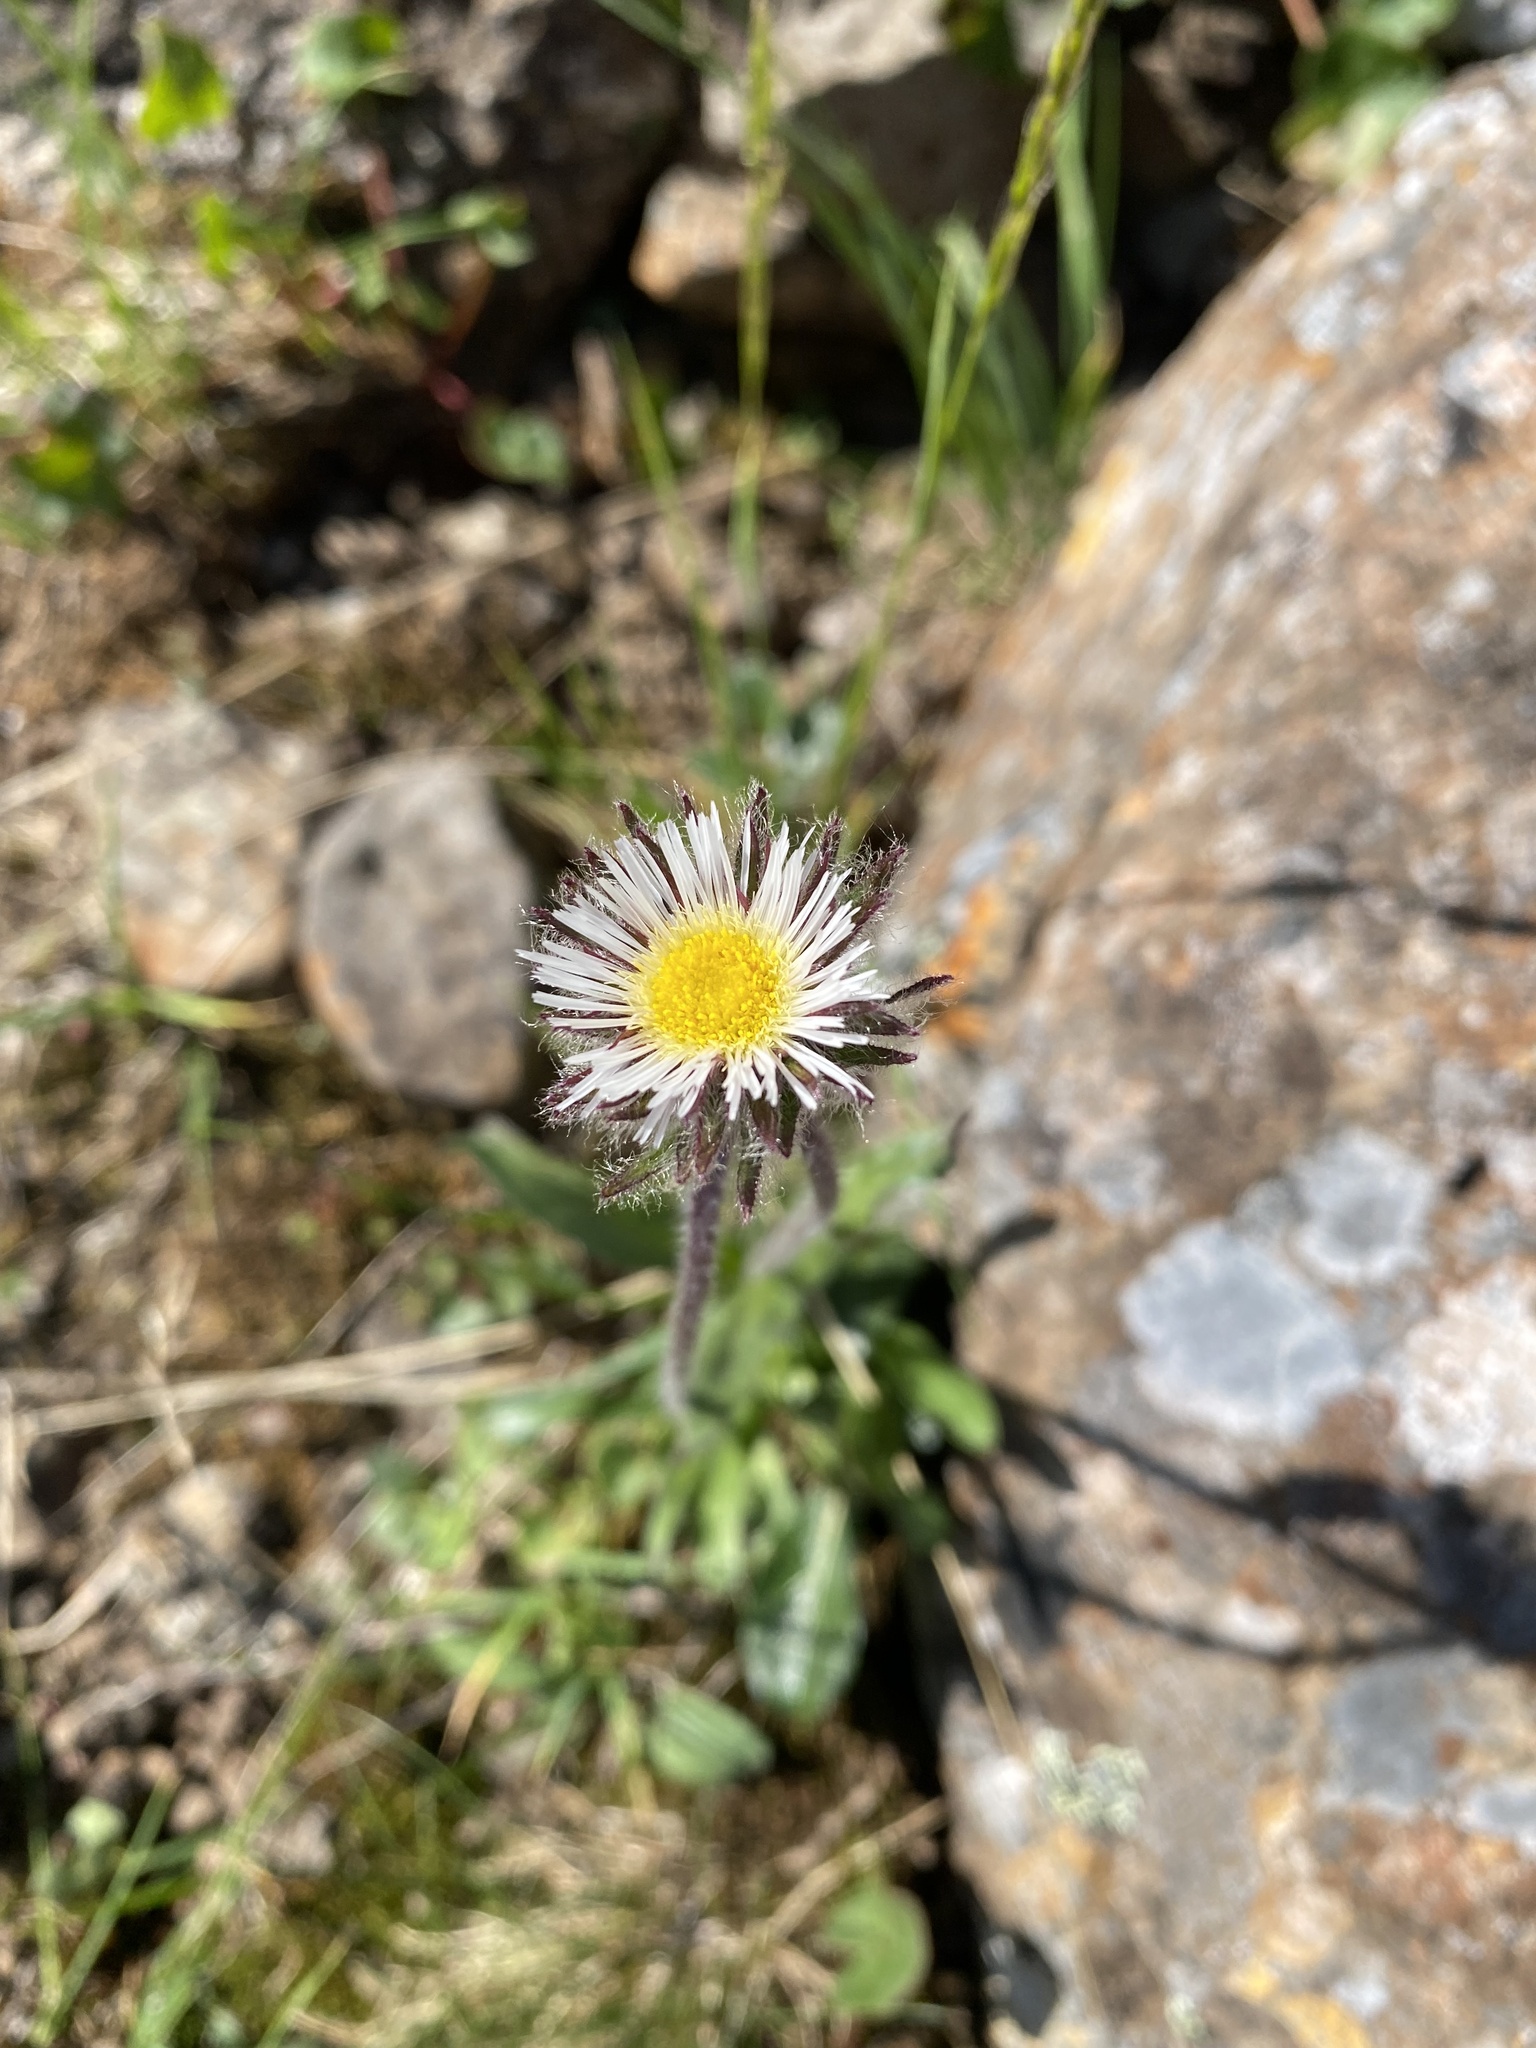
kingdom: Plantae
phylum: Tracheophyta
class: Magnoliopsida
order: Asterales
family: Asteraceae
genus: Erigeron
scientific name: Erigeron eriocalyx
